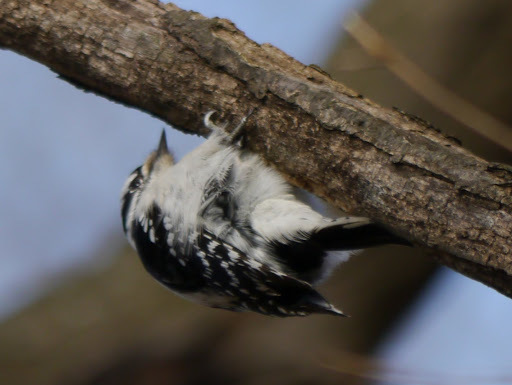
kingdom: Animalia
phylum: Chordata
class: Aves
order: Piciformes
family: Picidae
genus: Dryobates
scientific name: Dryobates pubescens
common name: Downy woodpecker
